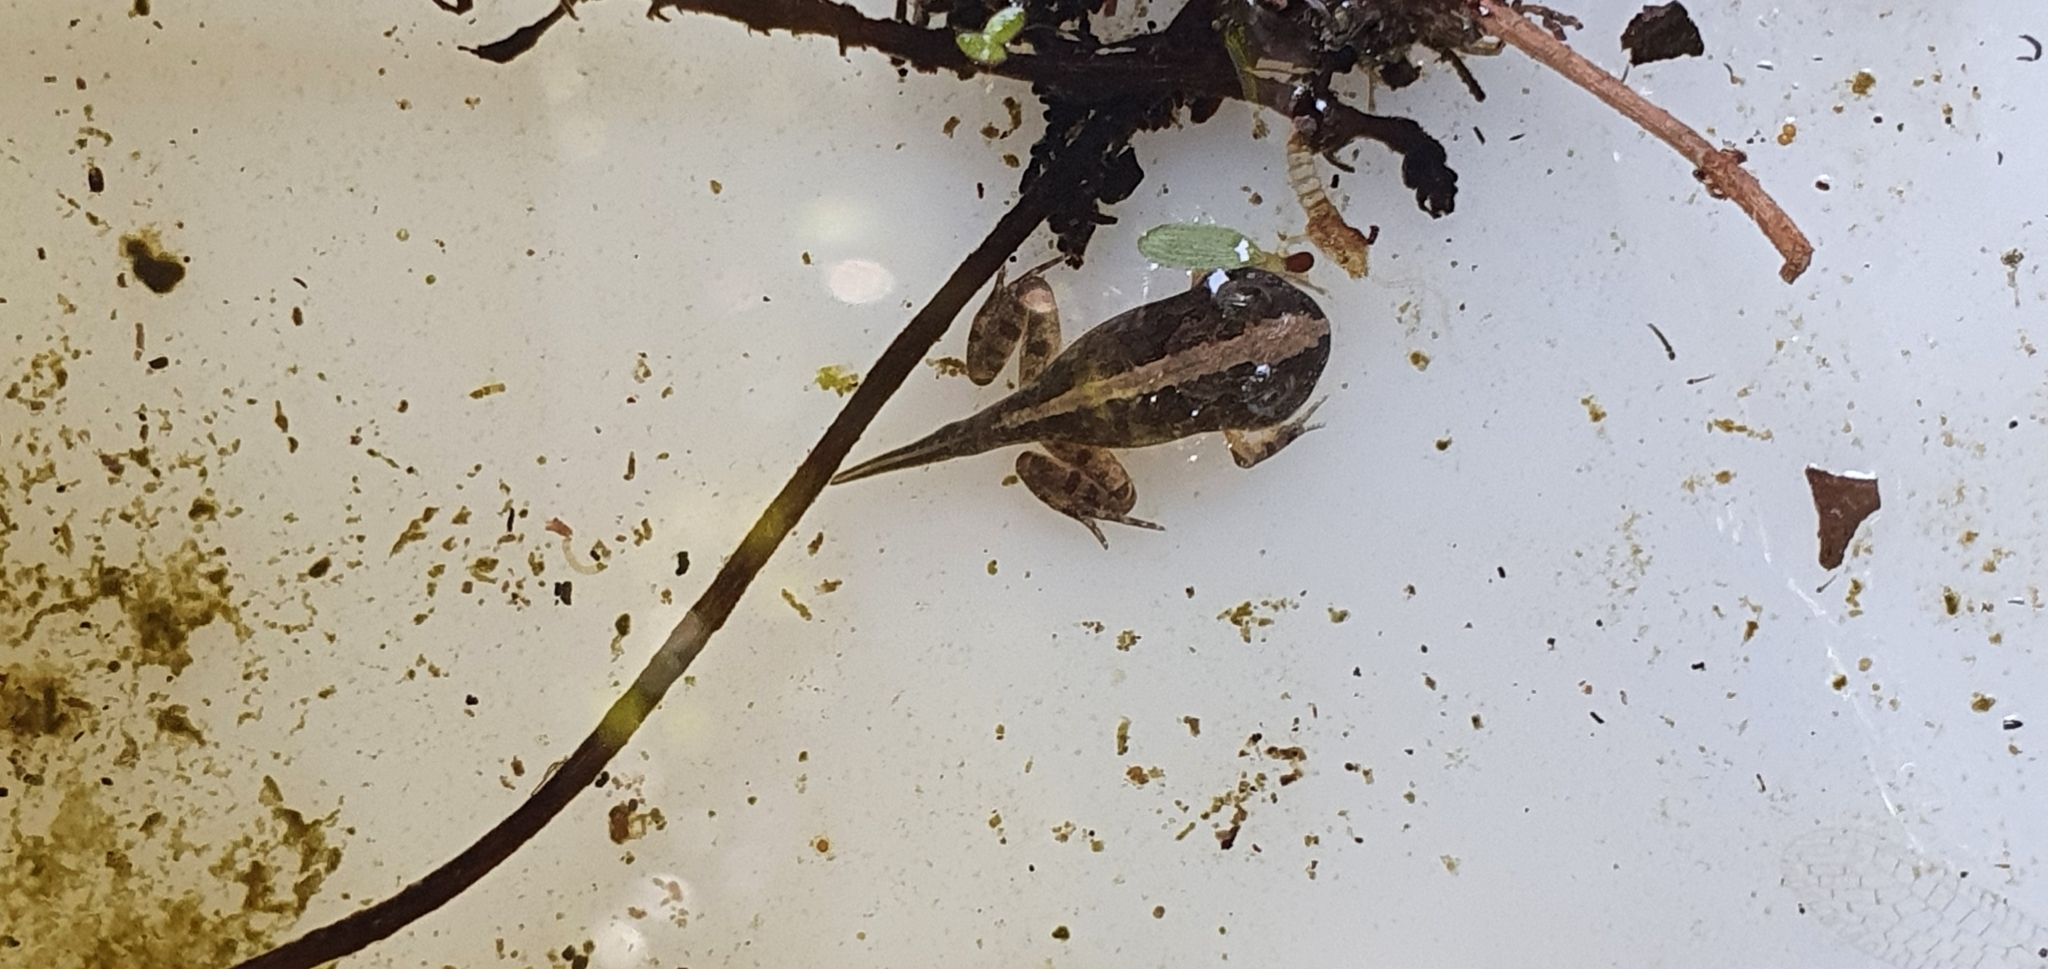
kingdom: Animalia
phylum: Chordata
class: Amphibia
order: Anura
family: Limnodynastidae
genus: Platyplectrum
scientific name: Platyplectrum ornatum
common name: Ornate burrowing frog
